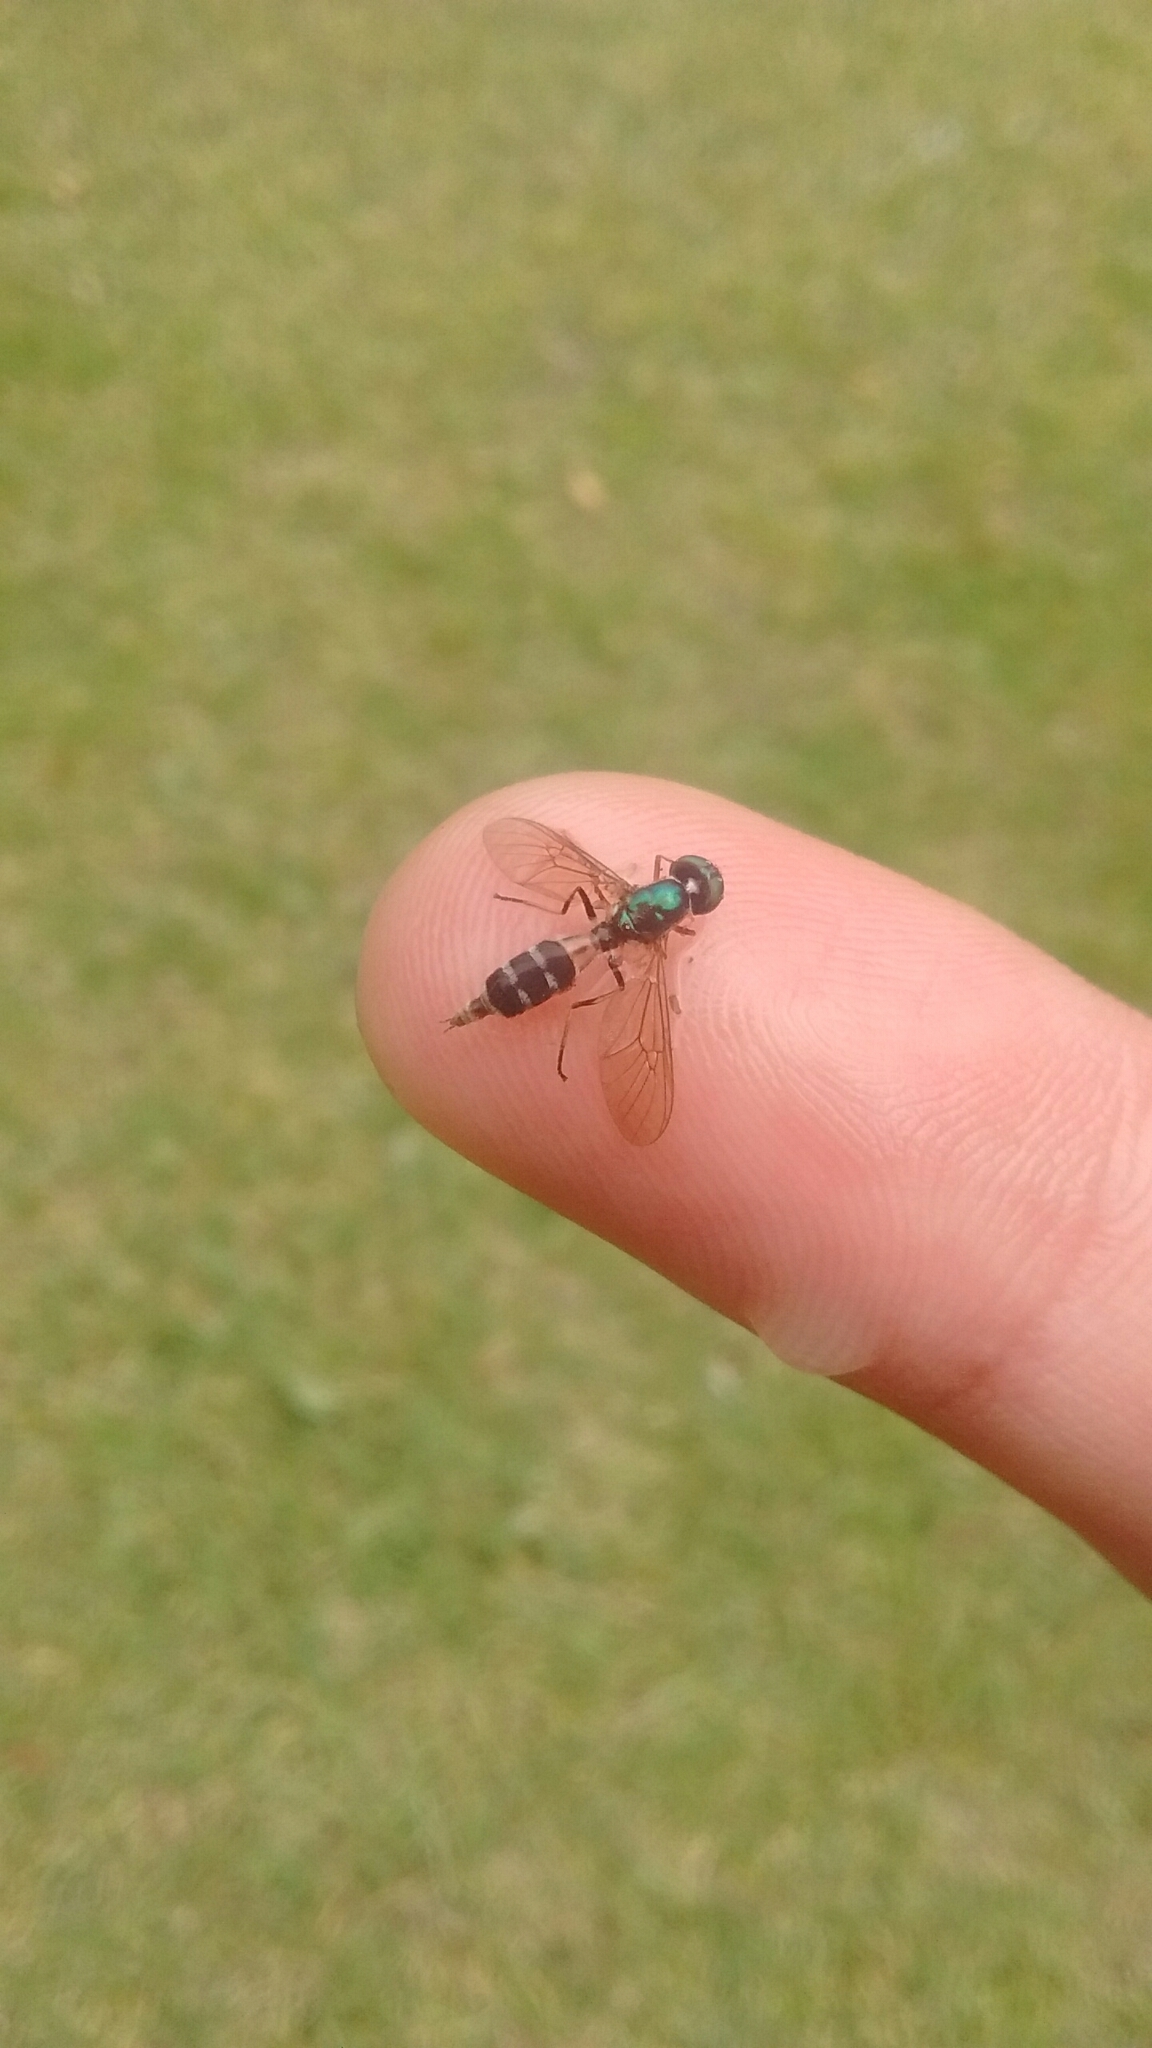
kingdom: Animalia
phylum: Arthropoda
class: Insecta
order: Diptera
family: Stratiomyidae
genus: Sargus
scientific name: Sargus fasciatus
